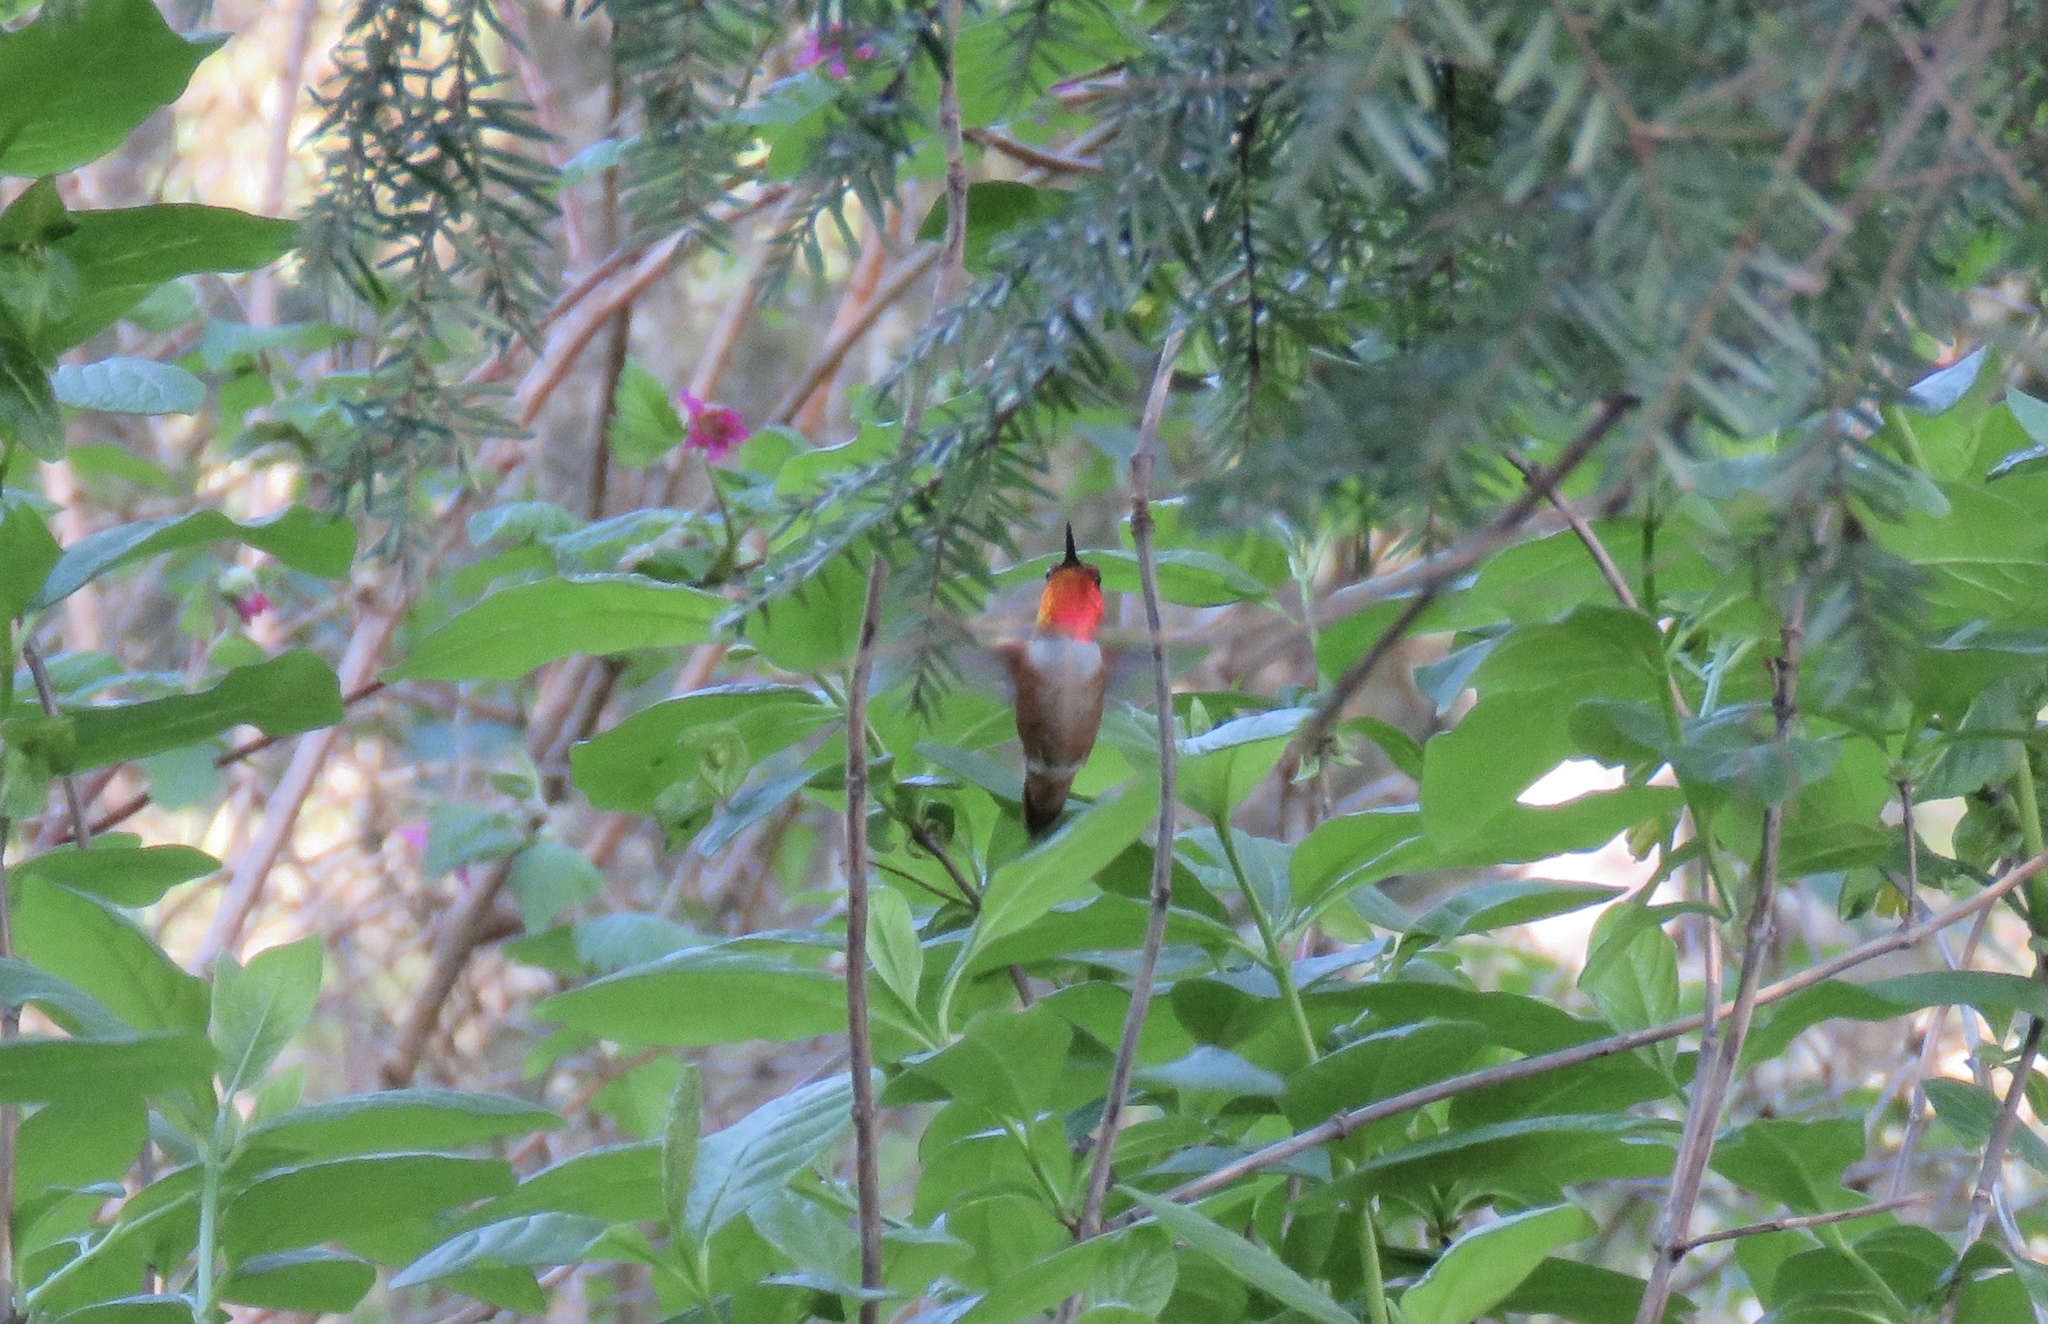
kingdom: Animalia
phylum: Chordata
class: Aves
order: Apodiformes
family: Trochilidae
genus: Selasphorus
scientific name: Selasphorus rufus
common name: Rufous hummingbird
